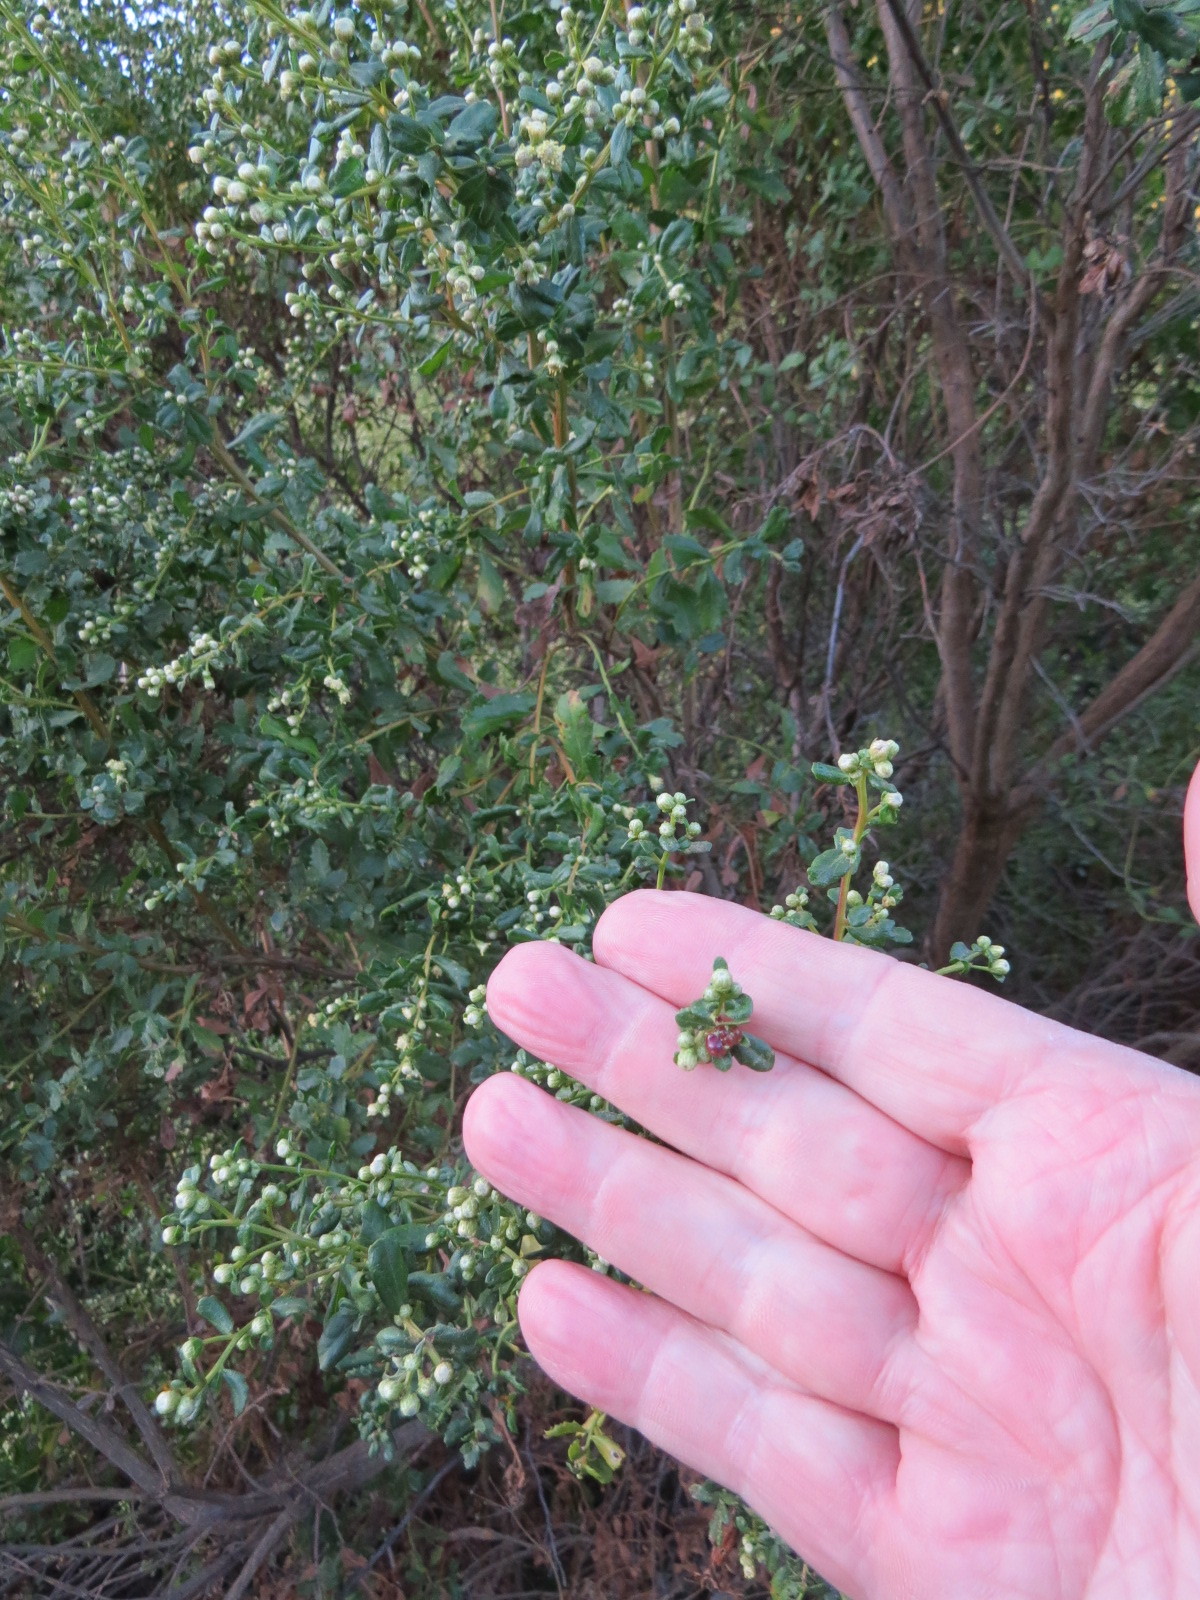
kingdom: Animalia
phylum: Arthropoda
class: Insecta
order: Diptera
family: Cecidomyiidae
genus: Rhopalomyia
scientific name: Rhopalomyia californica
